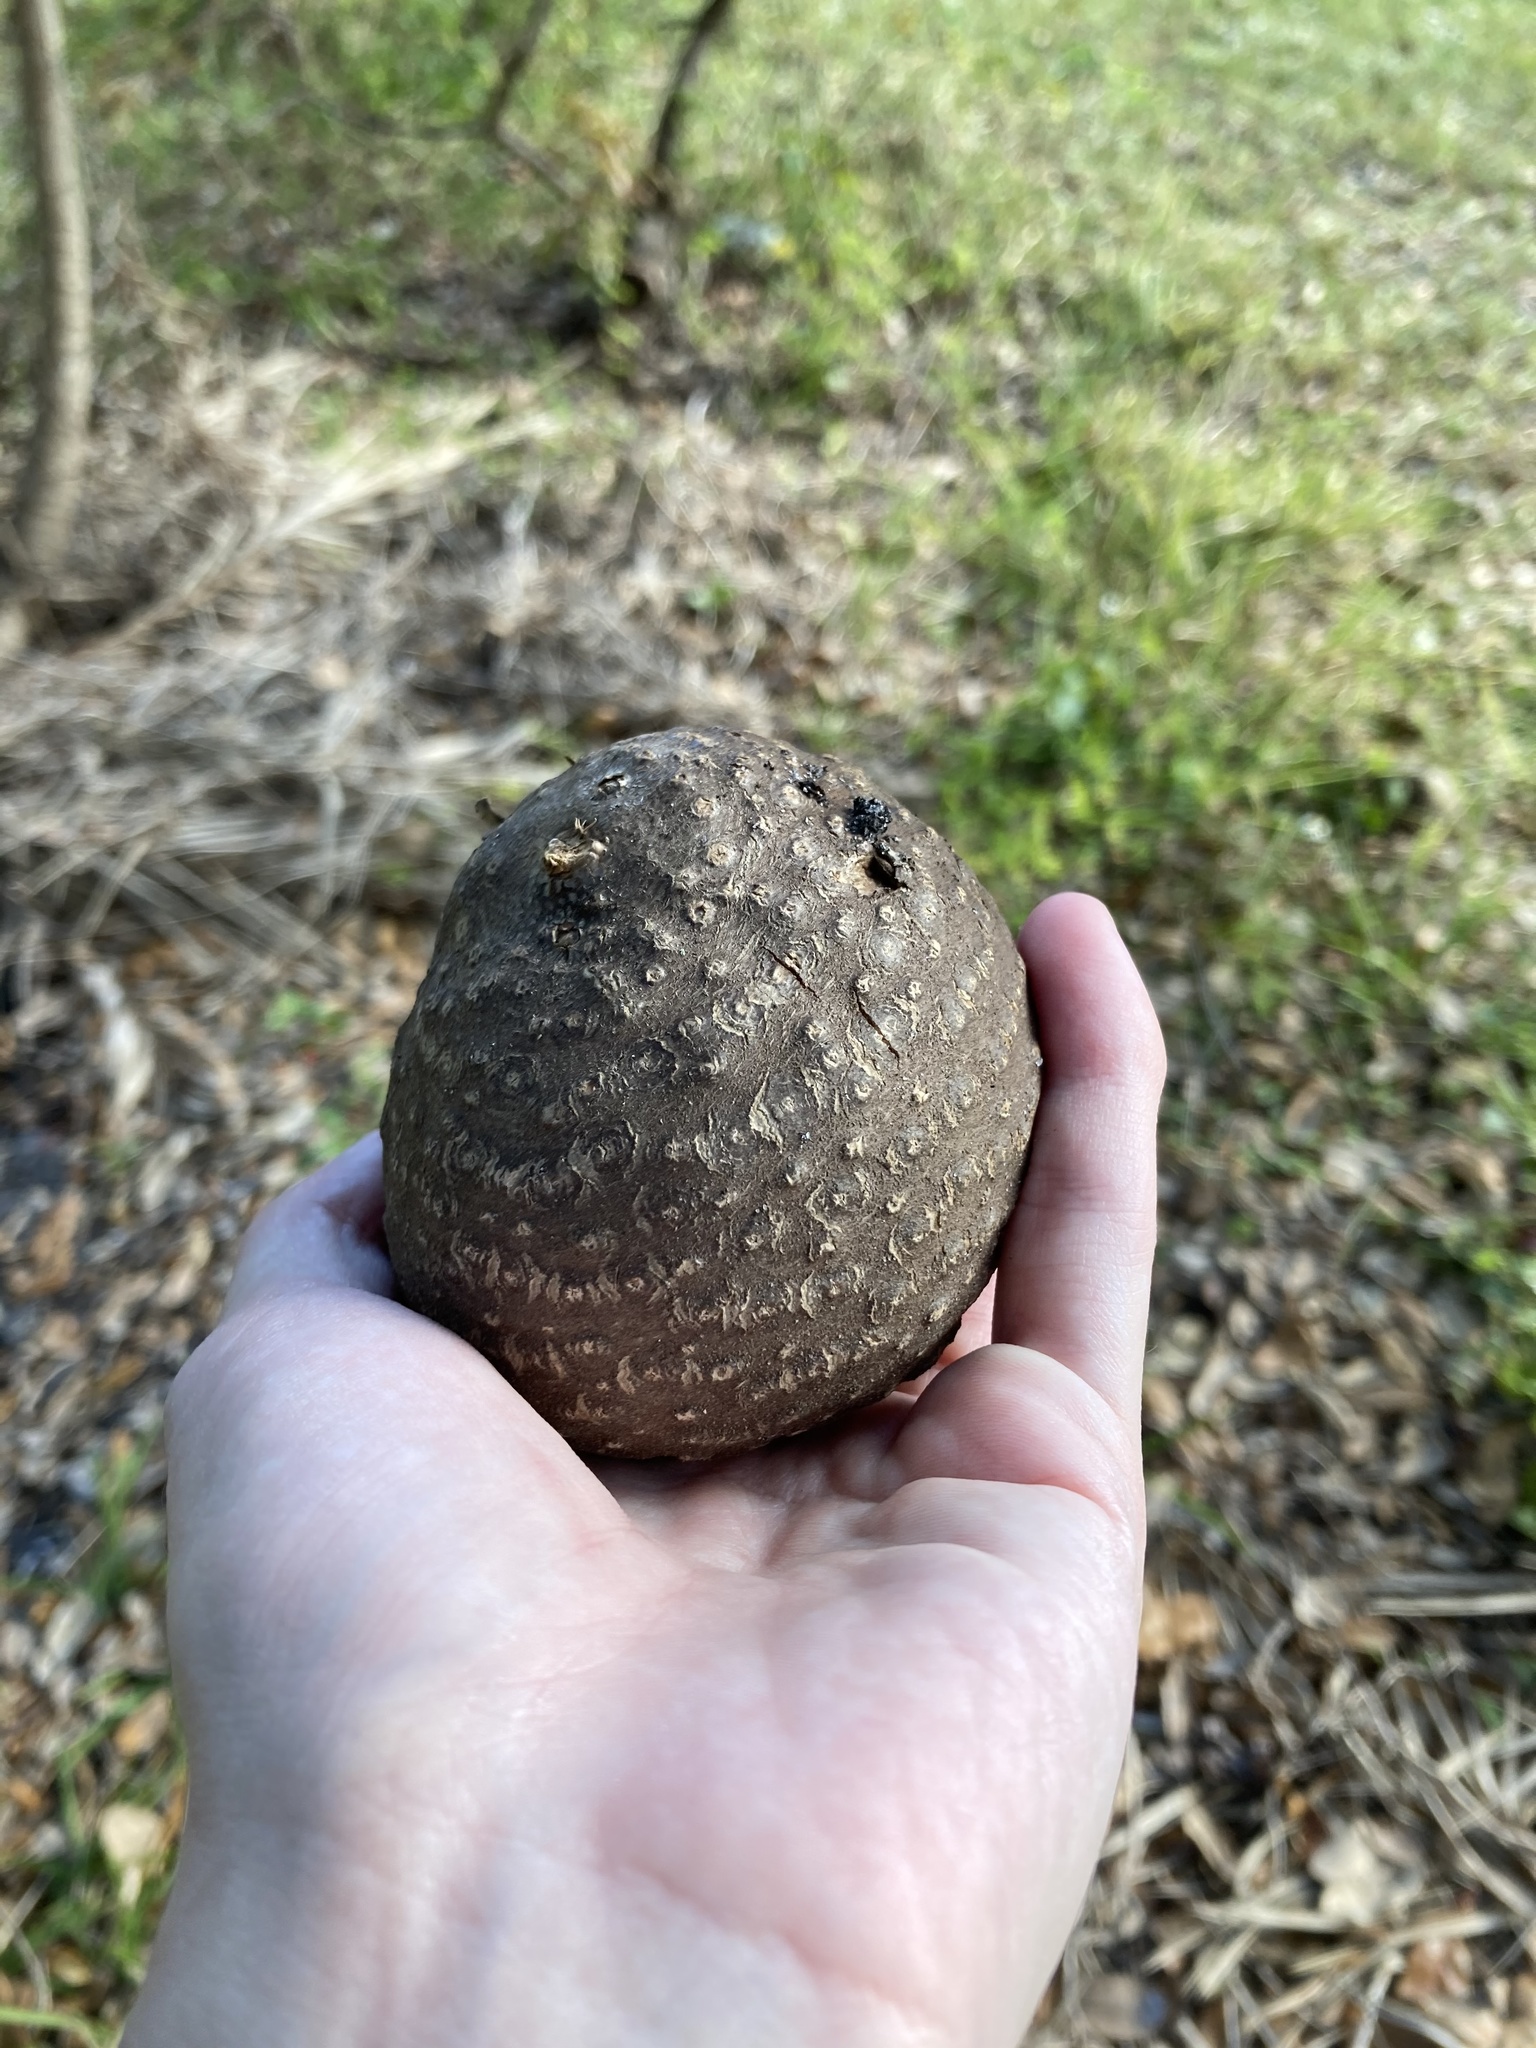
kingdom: Plantae
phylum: Tracheophyta
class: Liliopsida
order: Dioscoreales
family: Dioscoreaceae
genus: Dioscorea
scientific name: Dioscorea bulbifera
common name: Air yam
